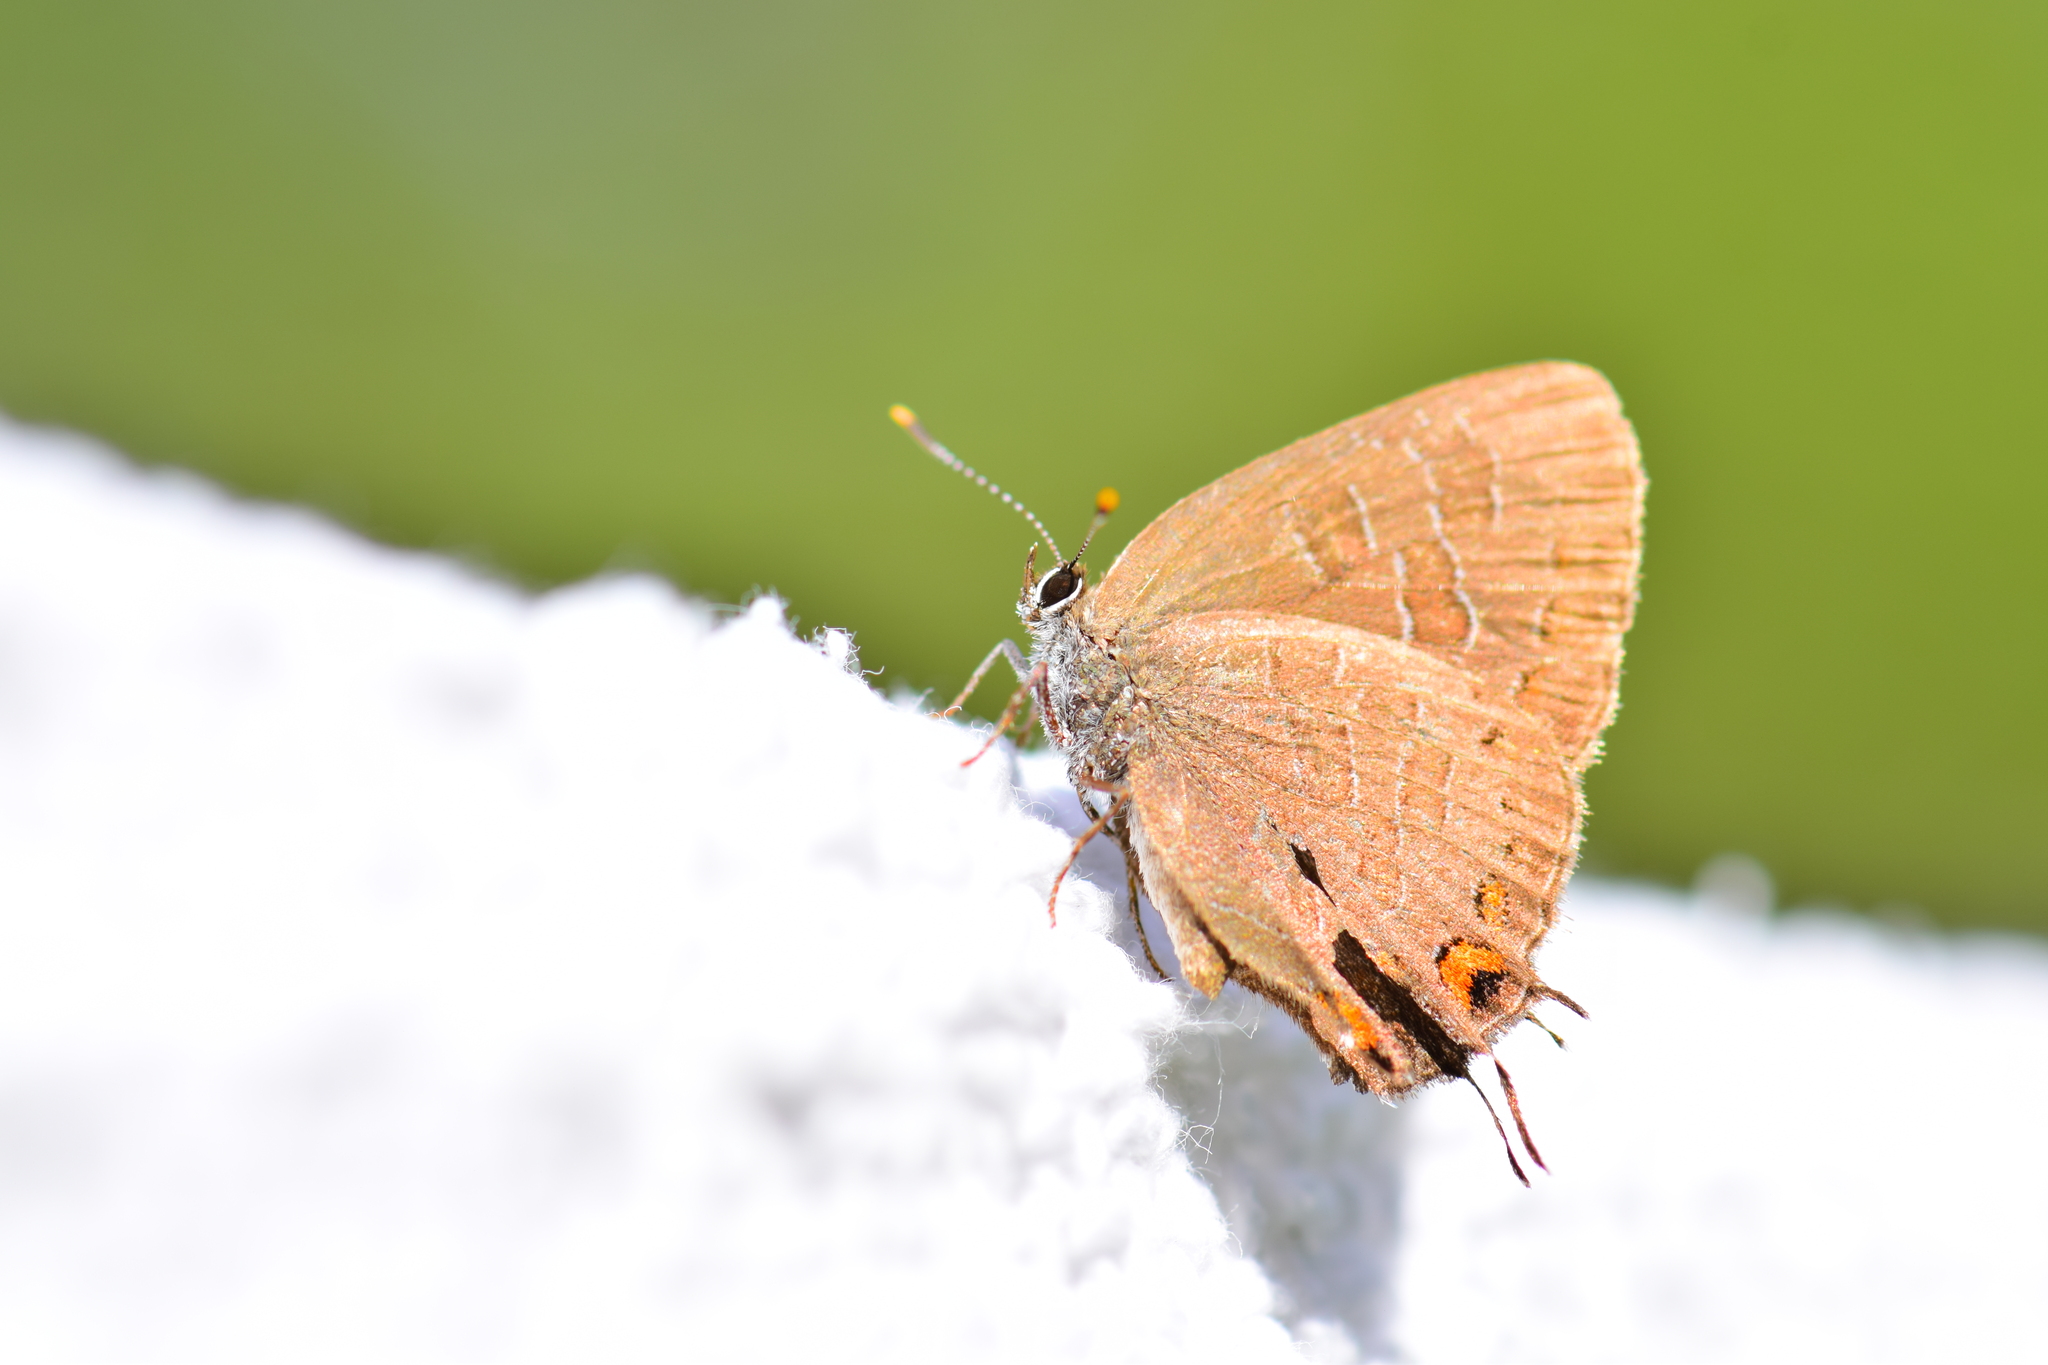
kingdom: Animalia
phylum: Arthropoda
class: Insecta
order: Lepidoptera
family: Lycaenidae
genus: Satyrium
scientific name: Satyrium liparops
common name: Striped hairstreak
